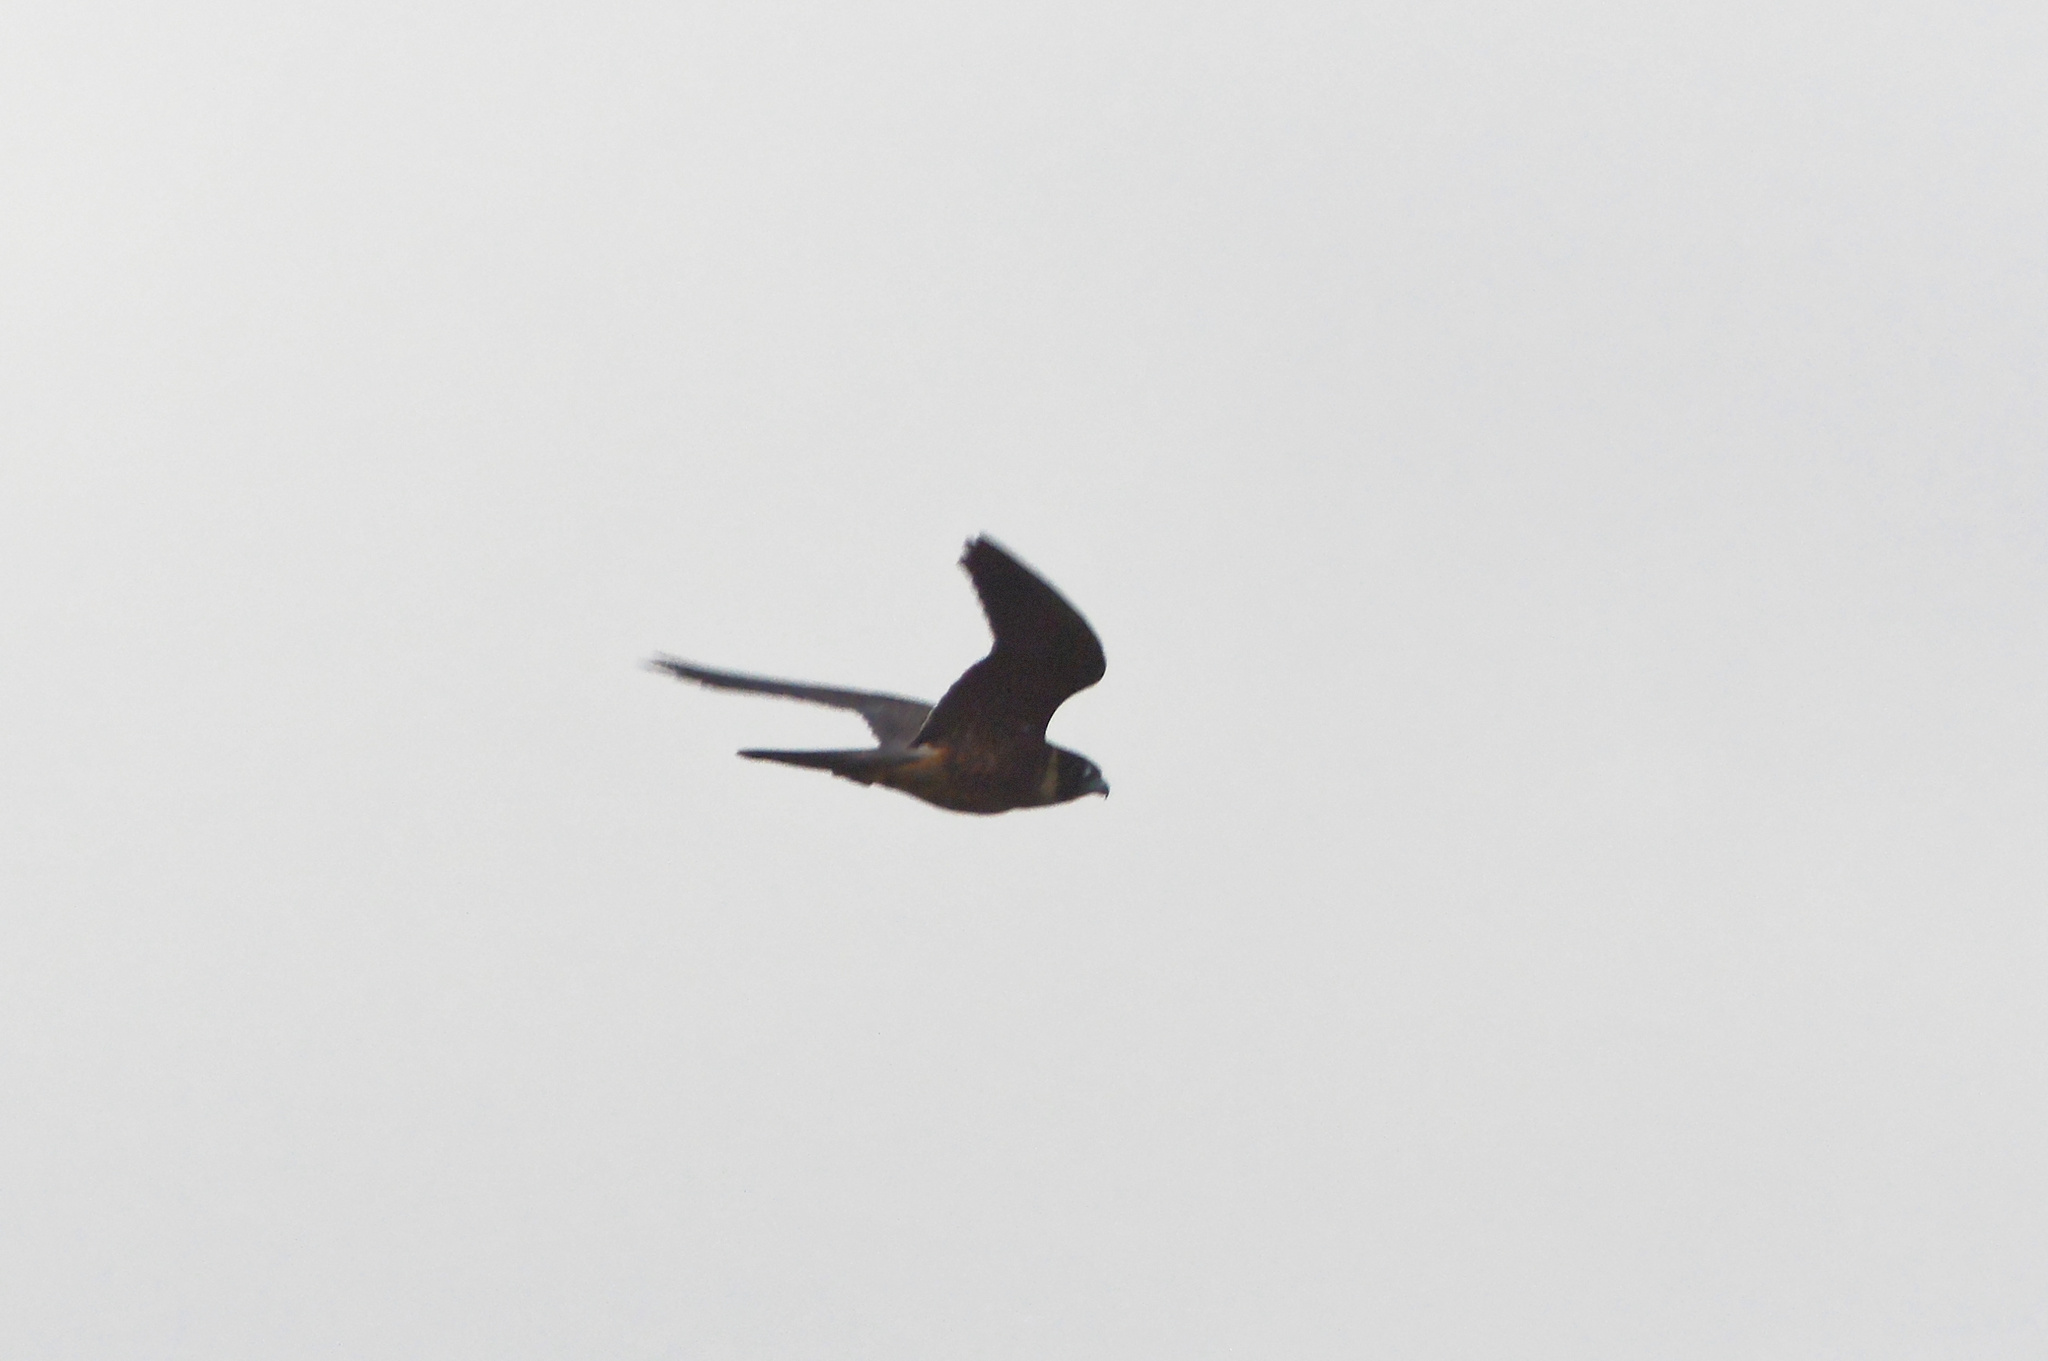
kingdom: Animalia
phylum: Chordata
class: Aves
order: Falconiformes
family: Falconidae
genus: Falco
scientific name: Falco longipennis
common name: Australian hobby
